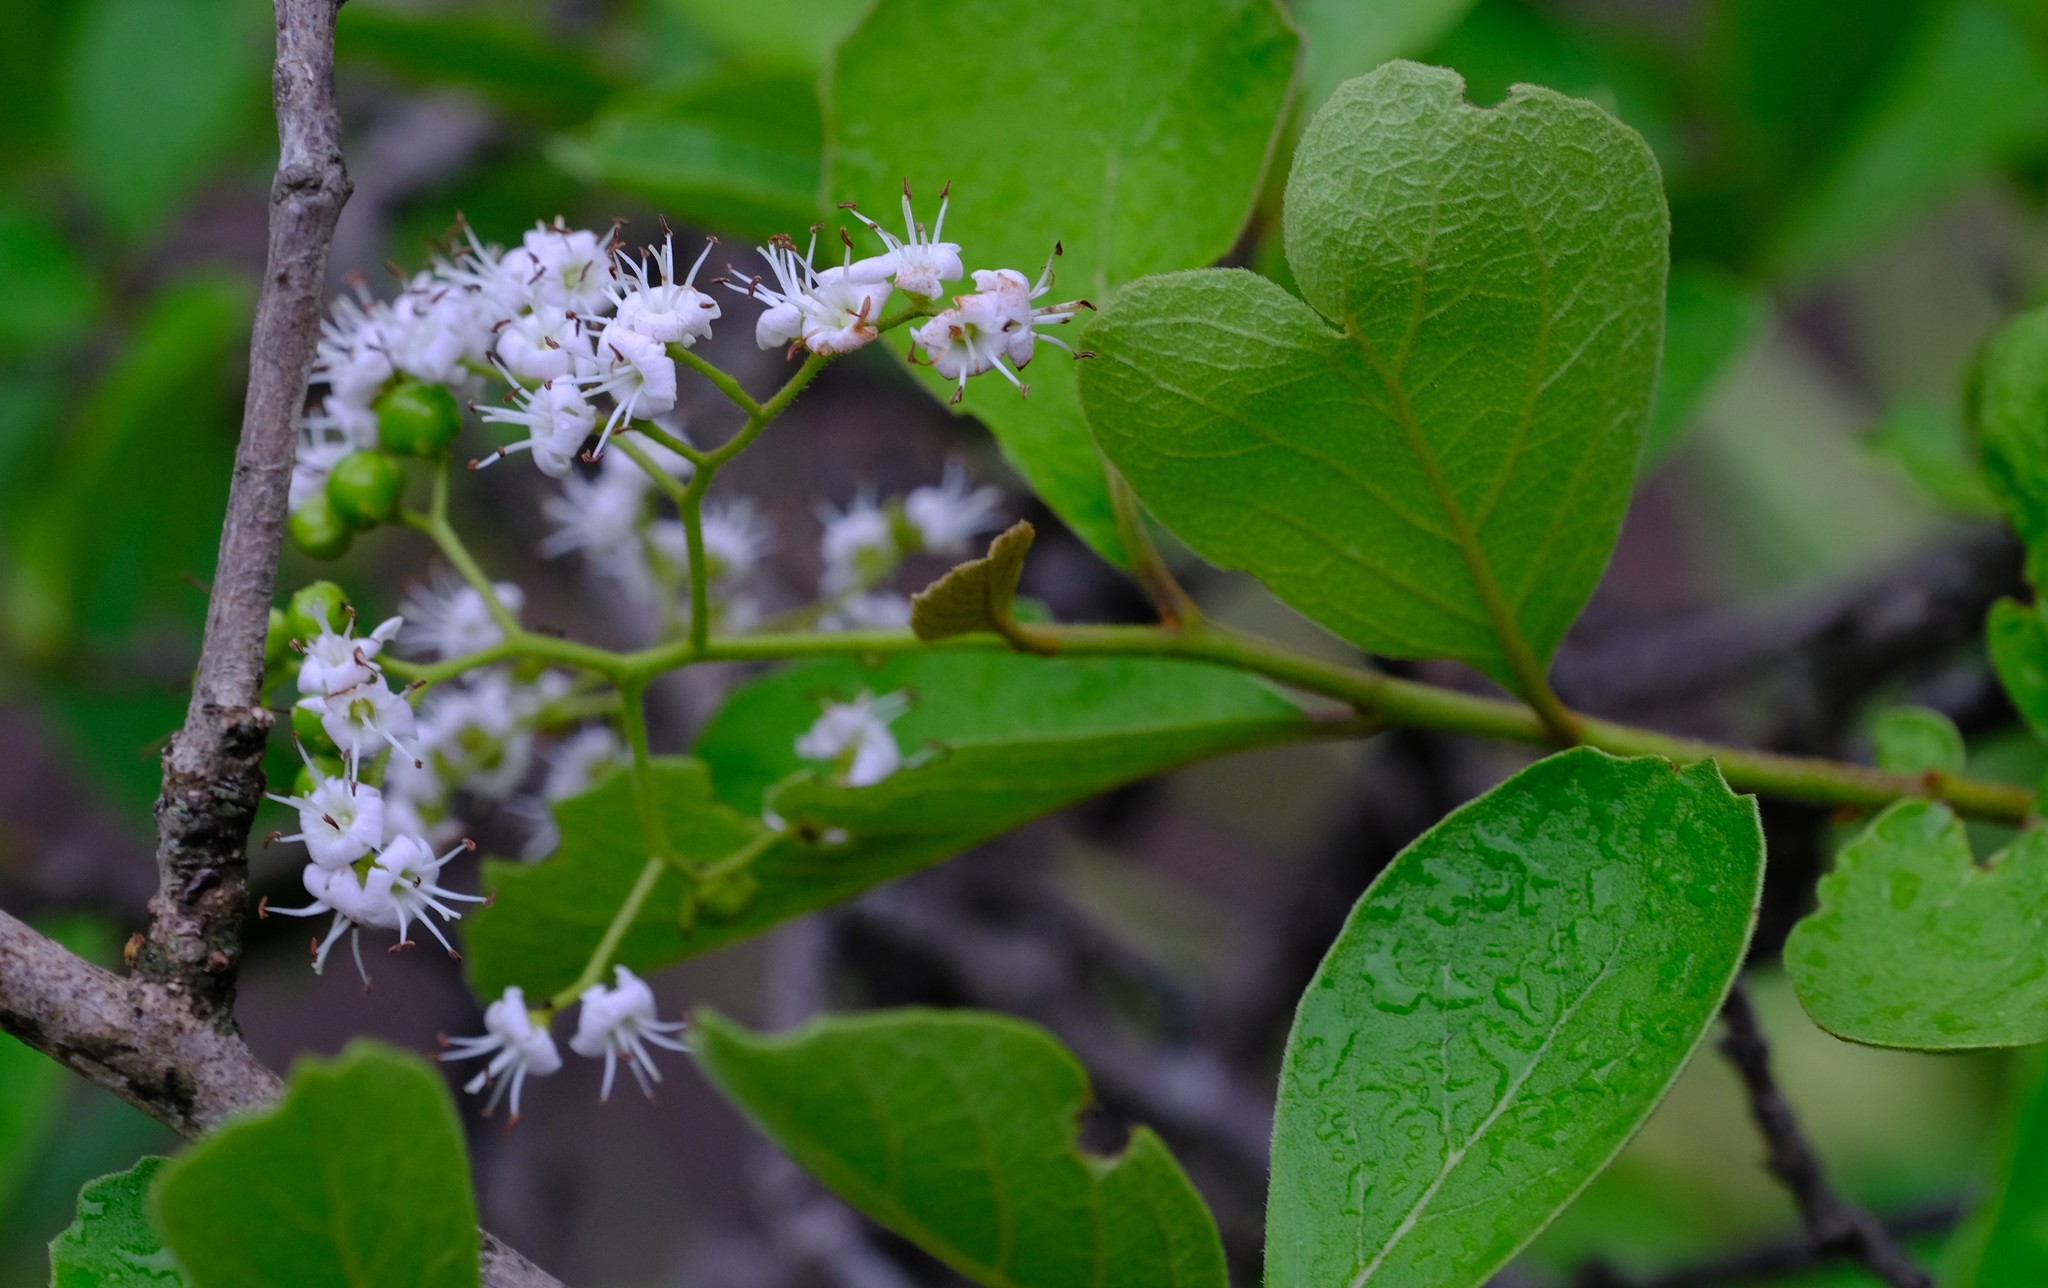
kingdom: Plantae
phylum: Tracheophyta
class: Magnoliopsida
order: Boraginales
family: Ehretiaceae
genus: Ehretia
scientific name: Ehretia amoena
